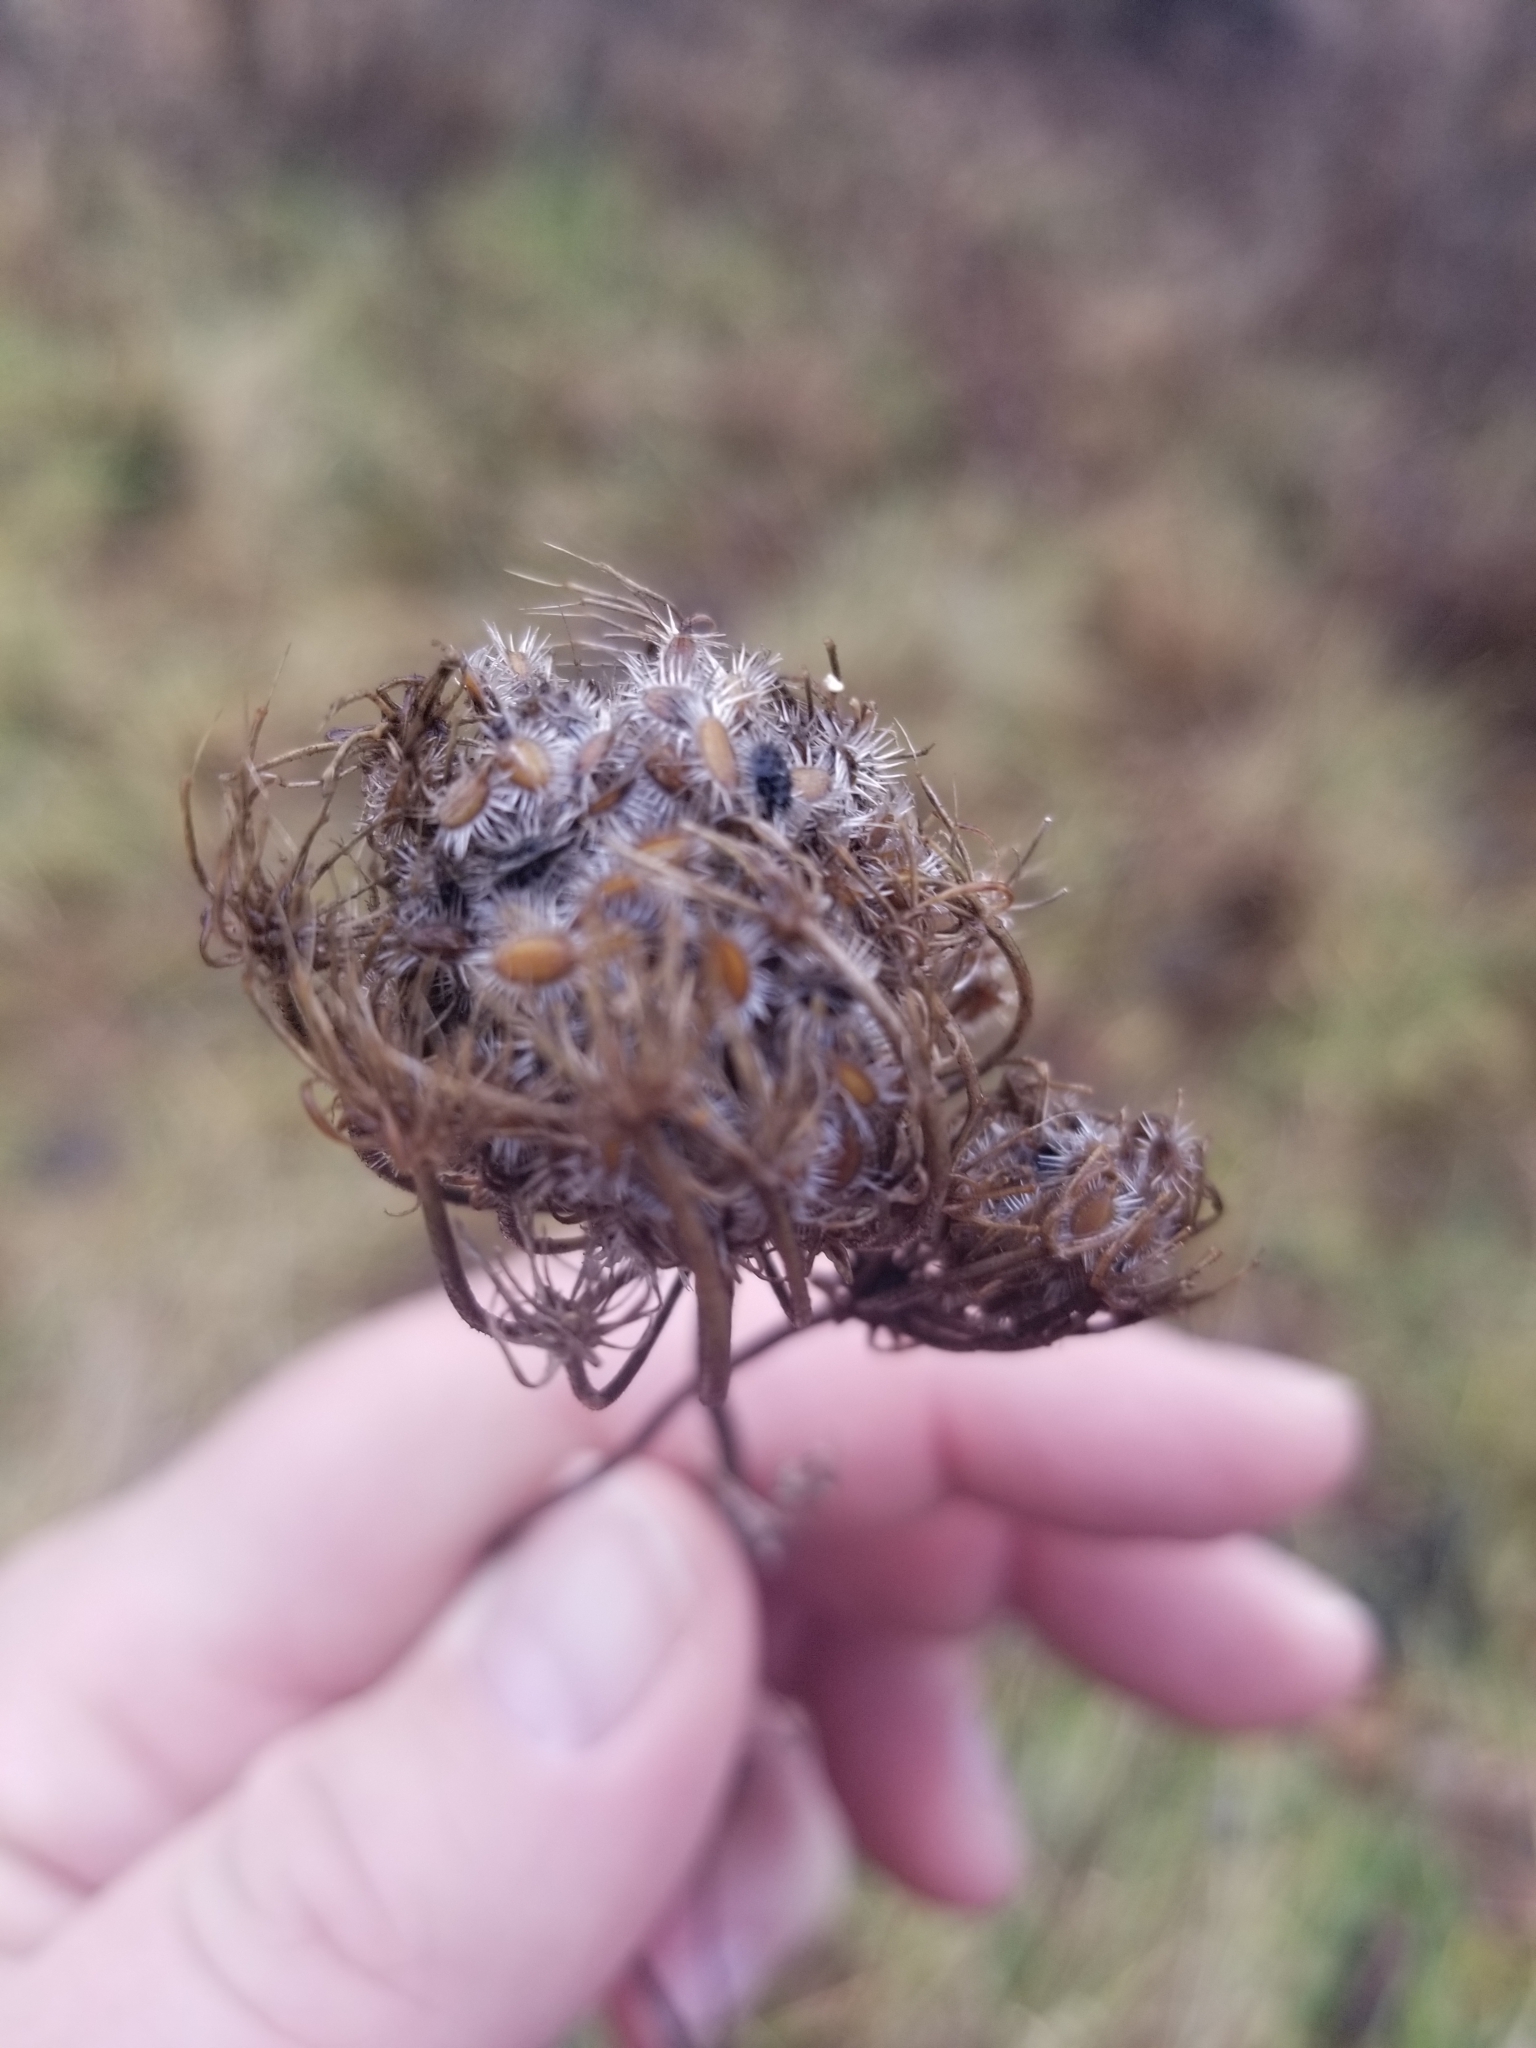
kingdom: Plantae
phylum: Tracheophyta
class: Magnoliopsida
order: Apiales
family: Apiaceae
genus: Daucus
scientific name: Daucus carota
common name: Wild carrot
